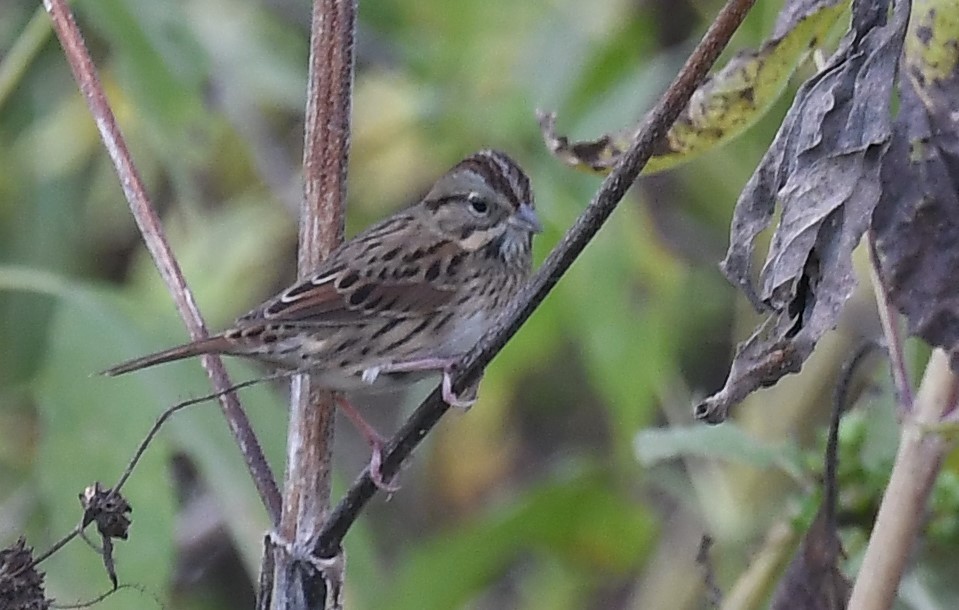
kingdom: Animalia
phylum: Chordata
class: Aves
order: Passeriformes
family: Passerellidae
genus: Melospiza
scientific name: Melospiza lincolnii
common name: Lincoln's sparrow
